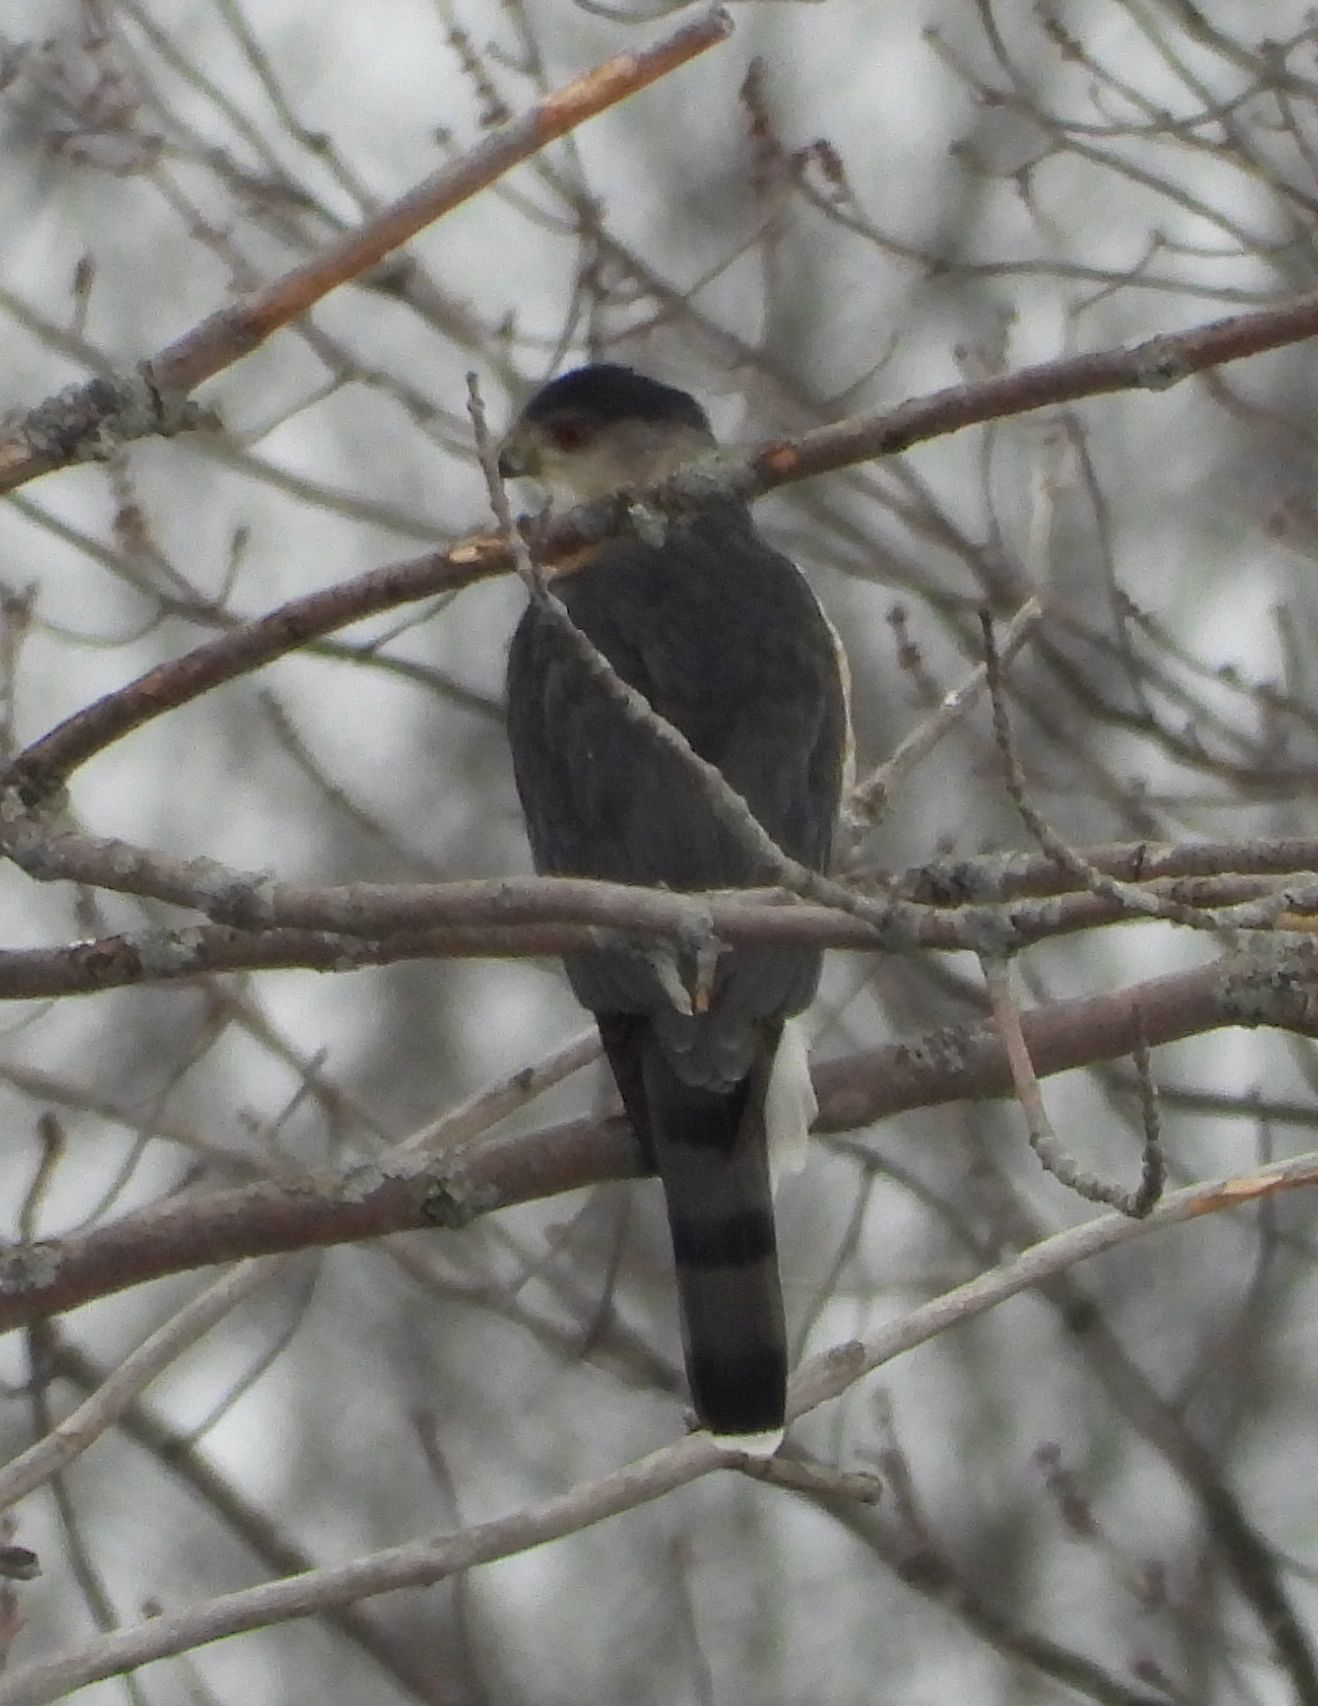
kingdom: Animalia
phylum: Chordata
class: Aves
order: Accipitriformes
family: Accipitridae
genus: Accipiter
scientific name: Accipiter cooperii
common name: Cooper's hawk
